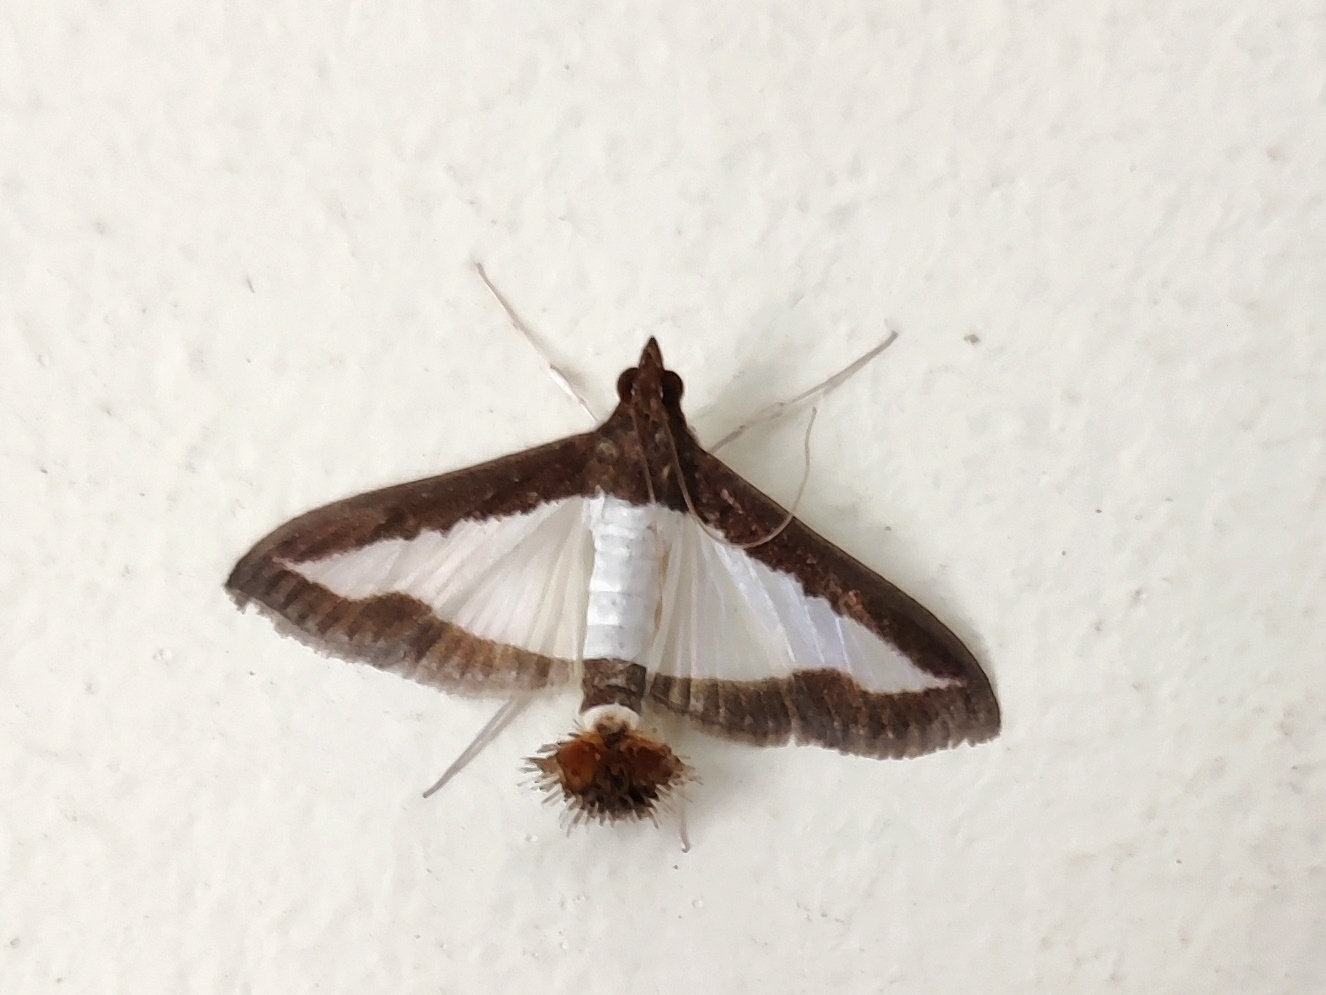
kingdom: Animalia
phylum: Arthropoda
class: Insecta
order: Lepidoptera
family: Crambidae
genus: Diaphania
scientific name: Diaphania indica
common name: Cucumber moth
